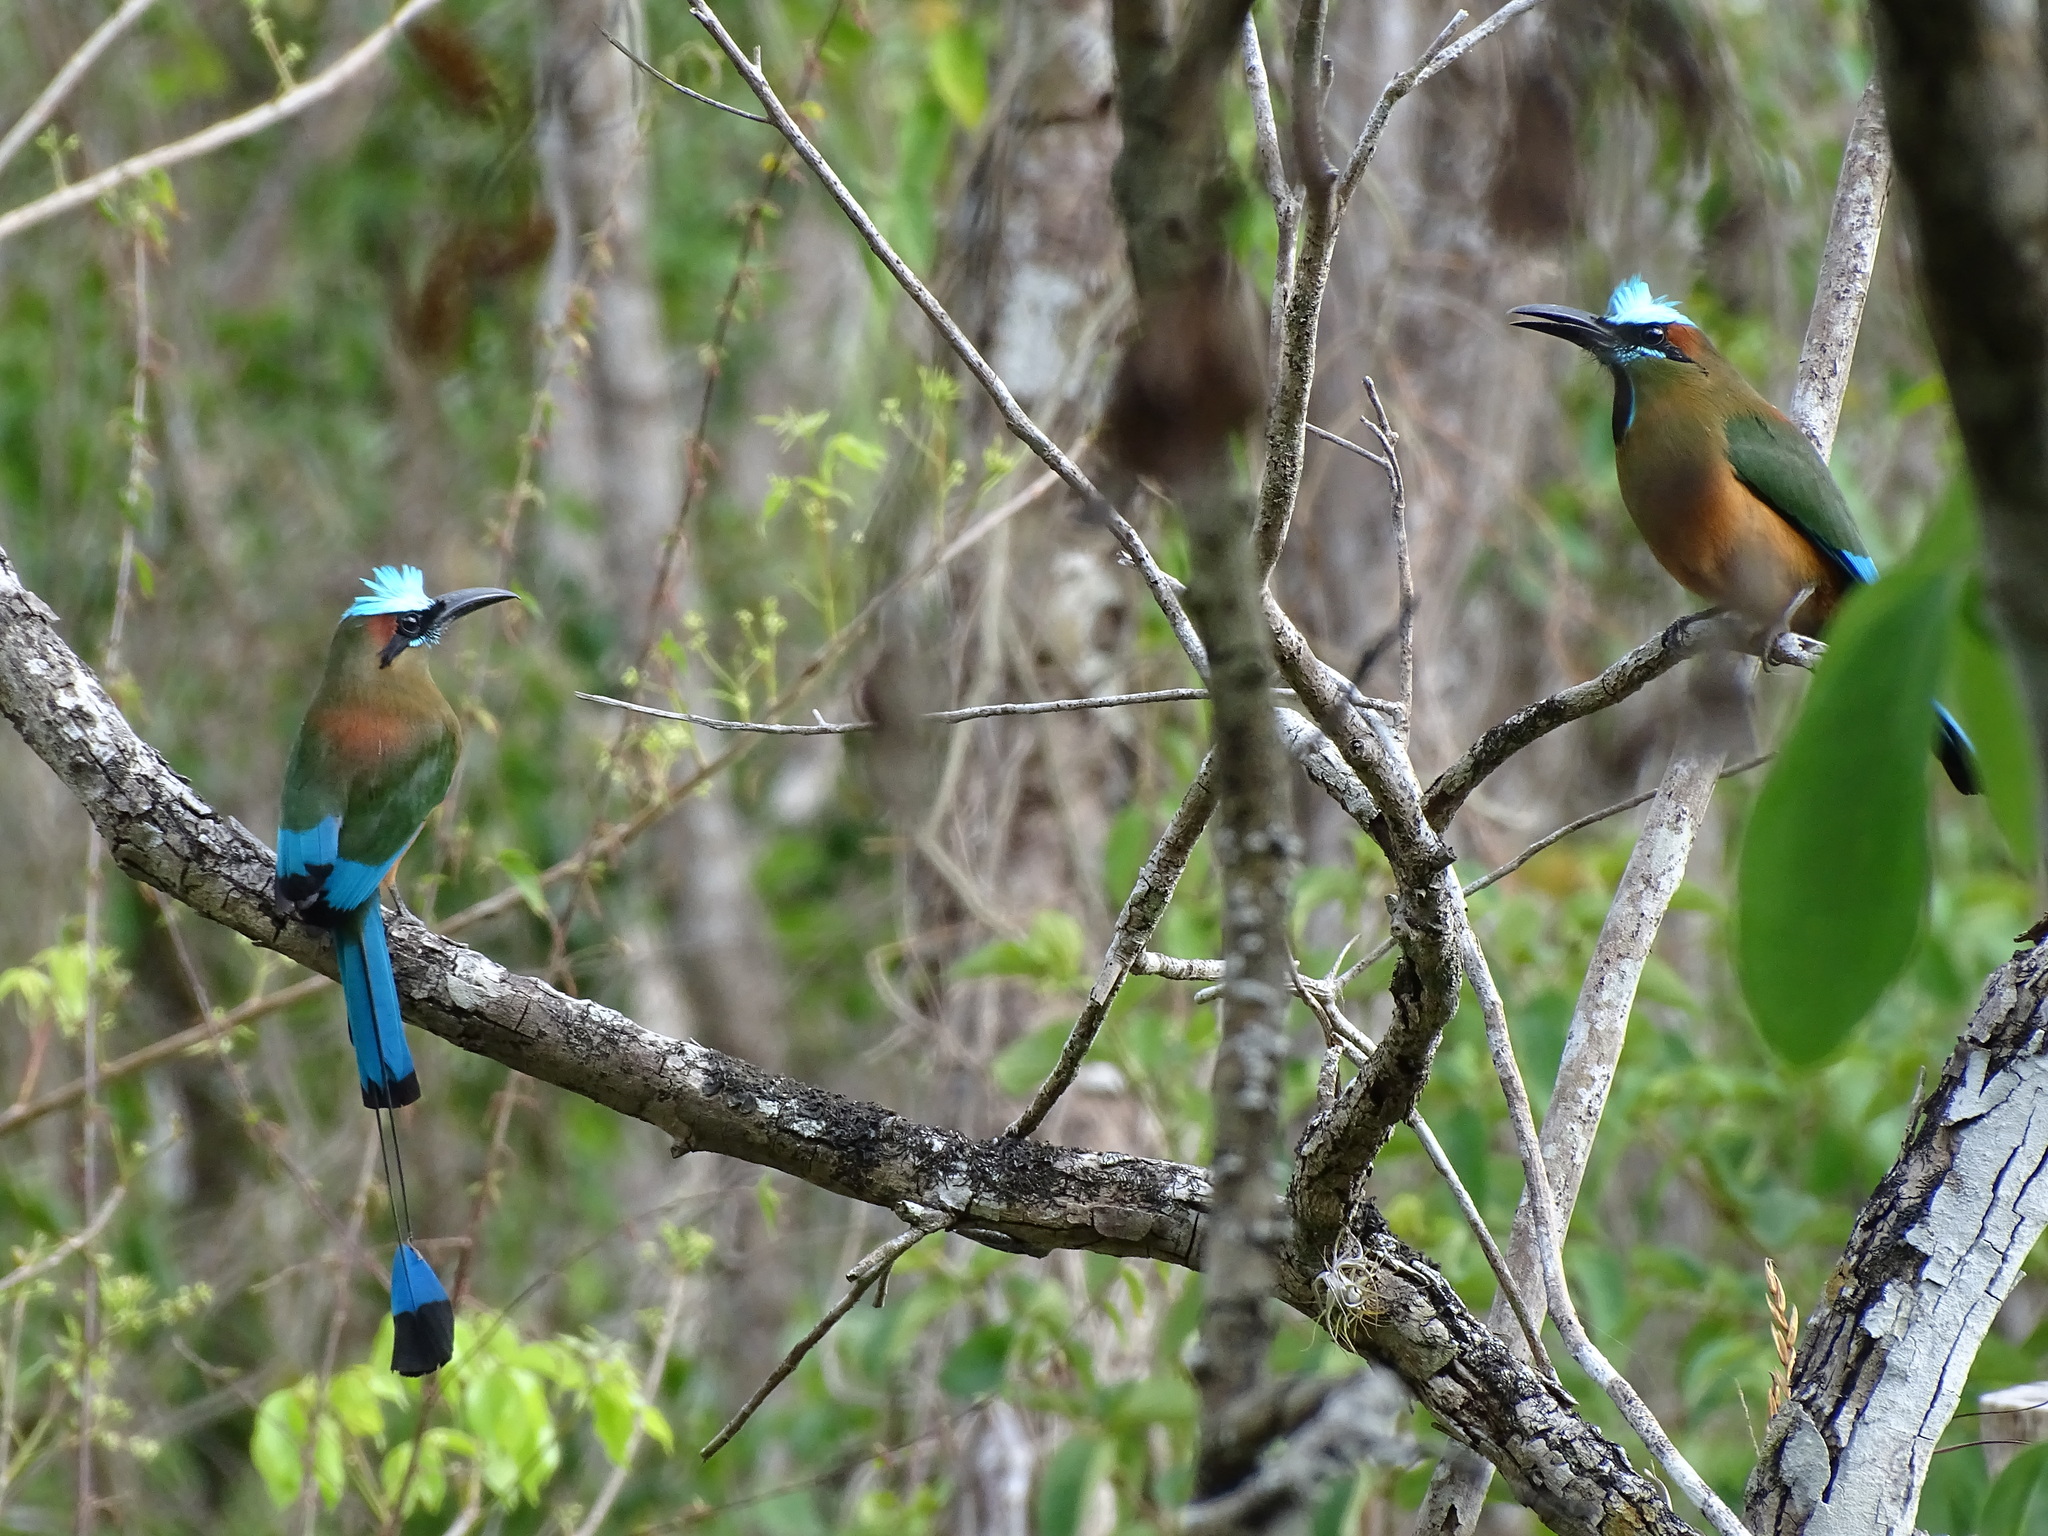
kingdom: Animalia
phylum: Chordata
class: Aves
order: Coraciiformes
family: Momotidae
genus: Eumomota
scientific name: Eumomota superciliosa
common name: Turquoise-browed motmot
